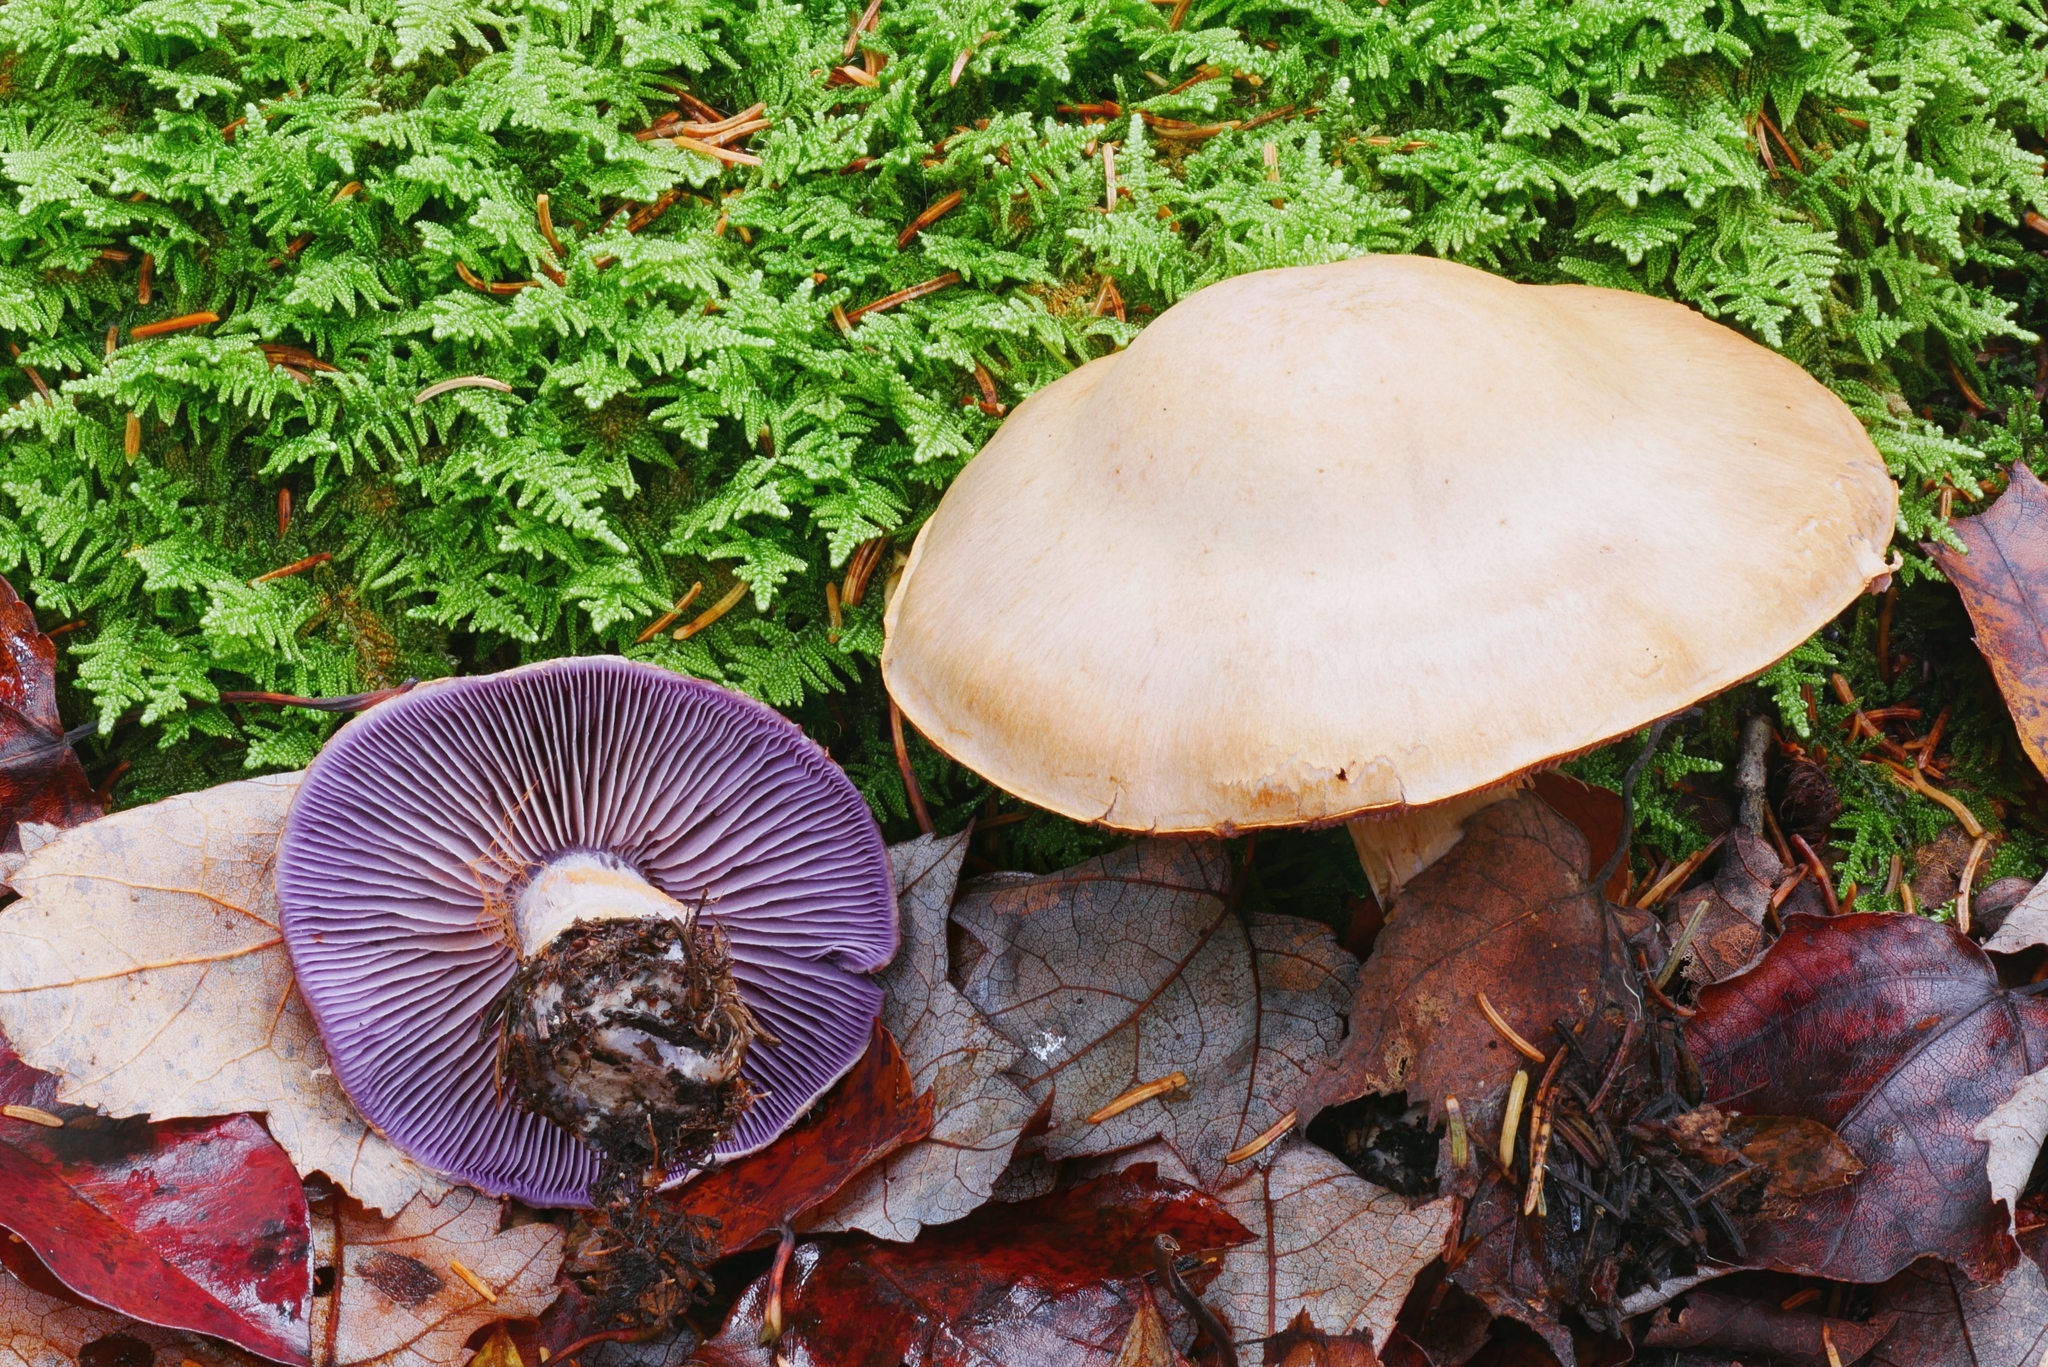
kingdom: Fungi
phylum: Basidiomycota
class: Agaricomycetes
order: Agaricales
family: Cortinariaceae
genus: Cortinarius
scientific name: Cortinarius camphoratus
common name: Goatcheese webcap
